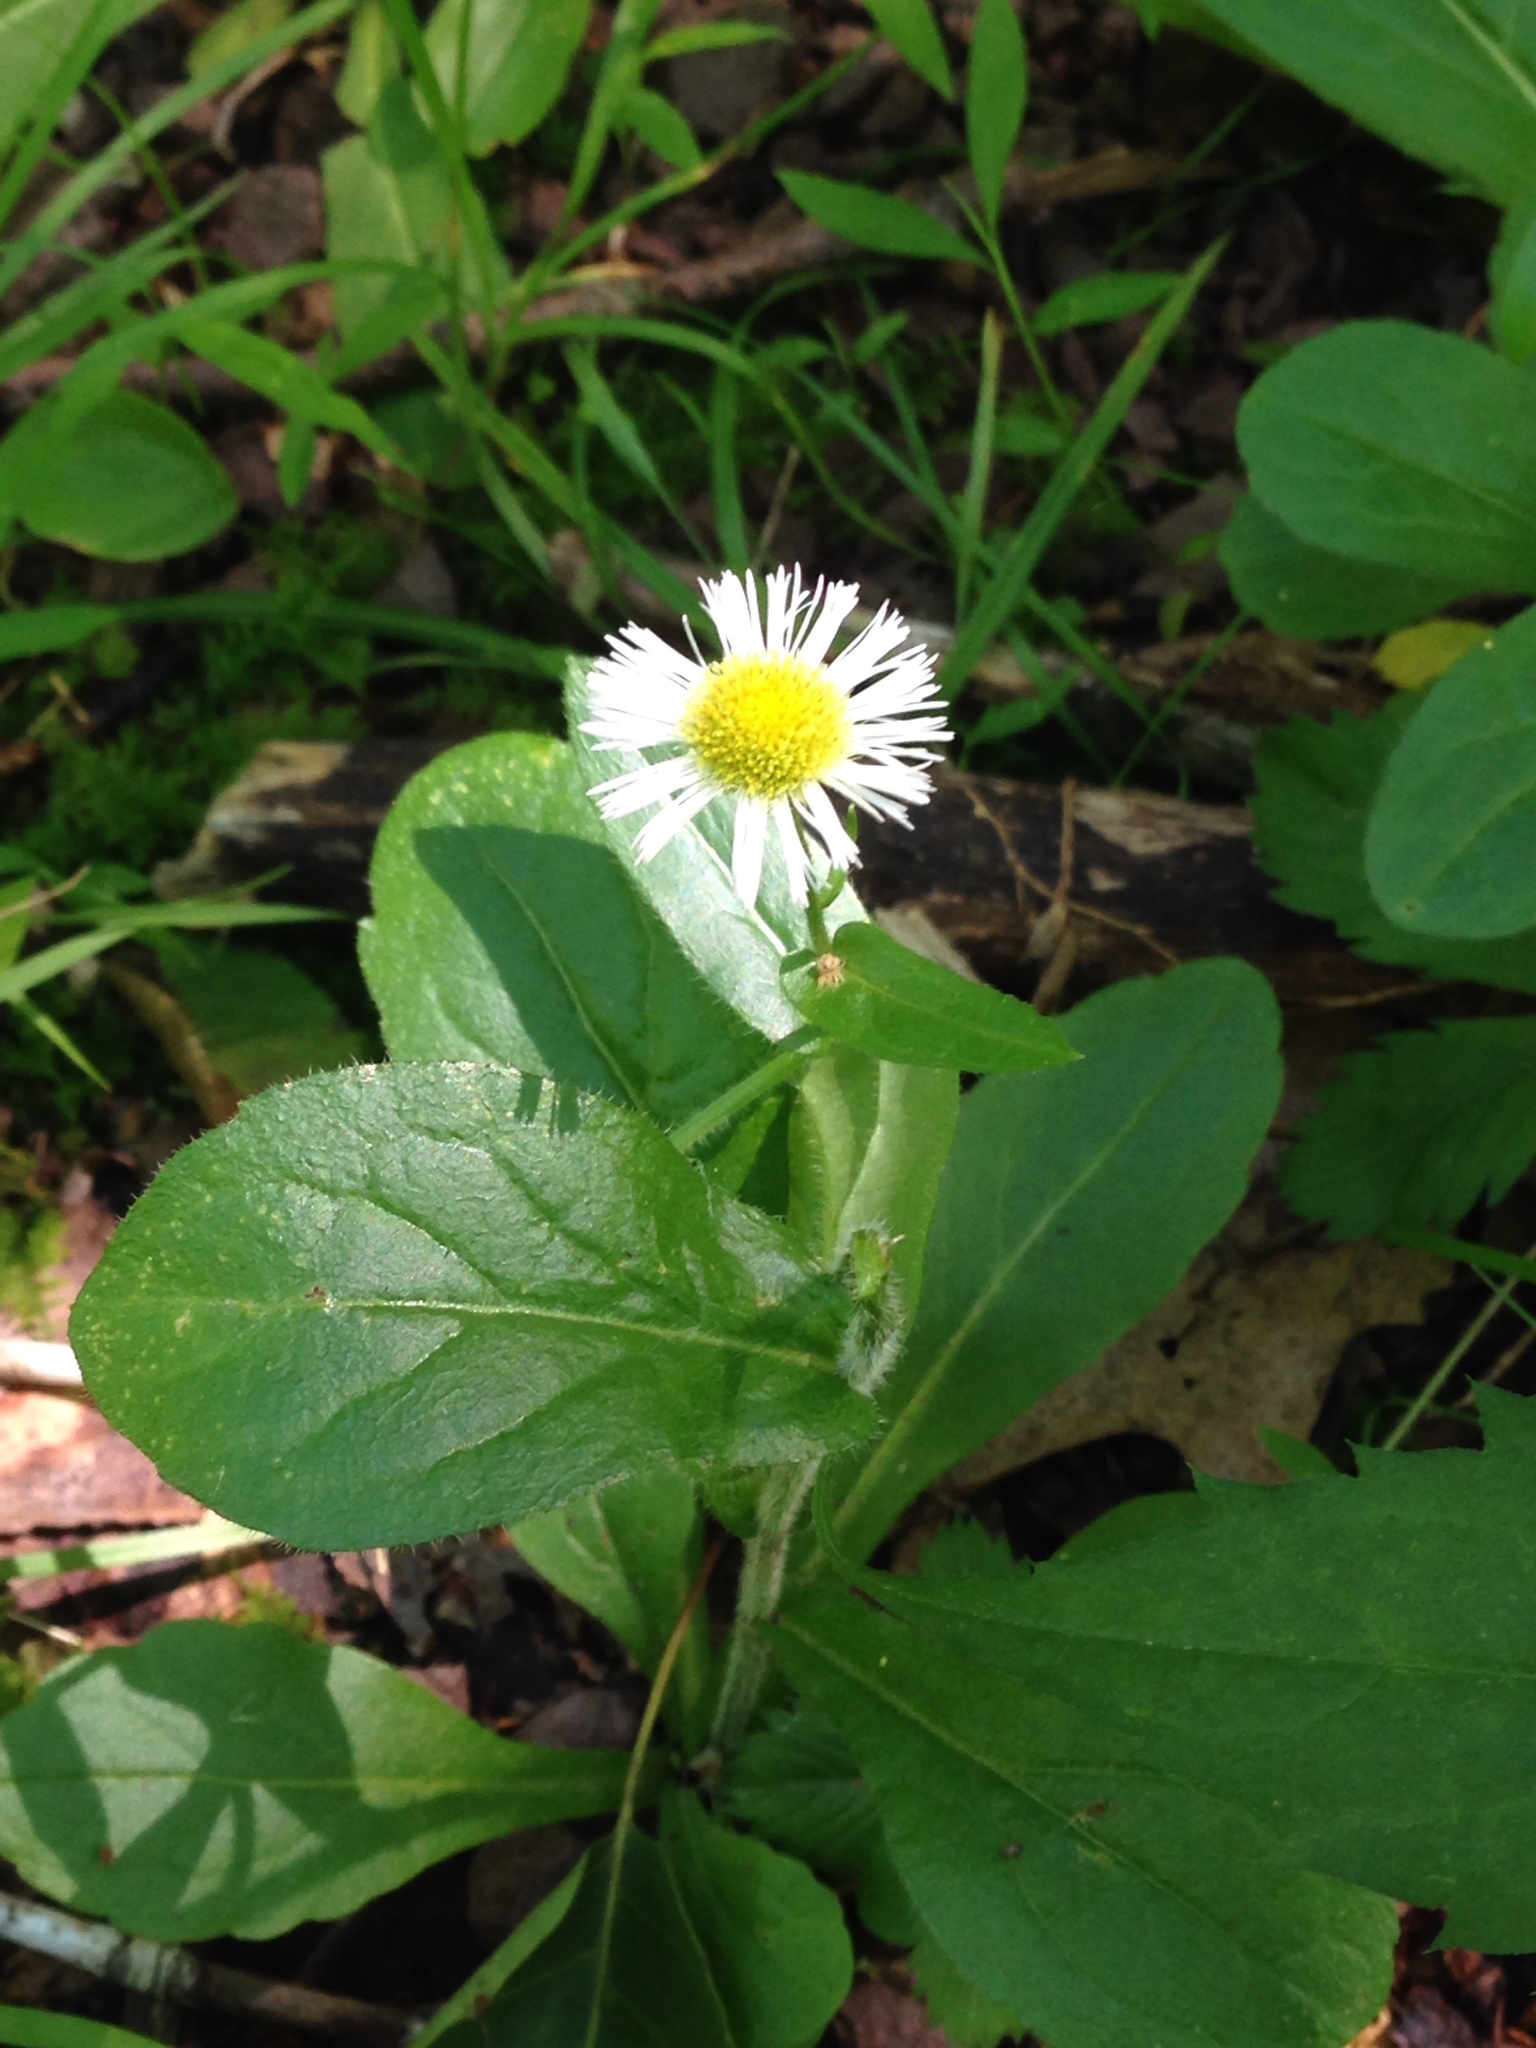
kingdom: Plantae
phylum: Tracheophyta
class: Magnoliopsida
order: Asterales
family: Asteraceae
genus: Erigeron
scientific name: Erigeron philadelphicus
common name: Robin's-plantain
